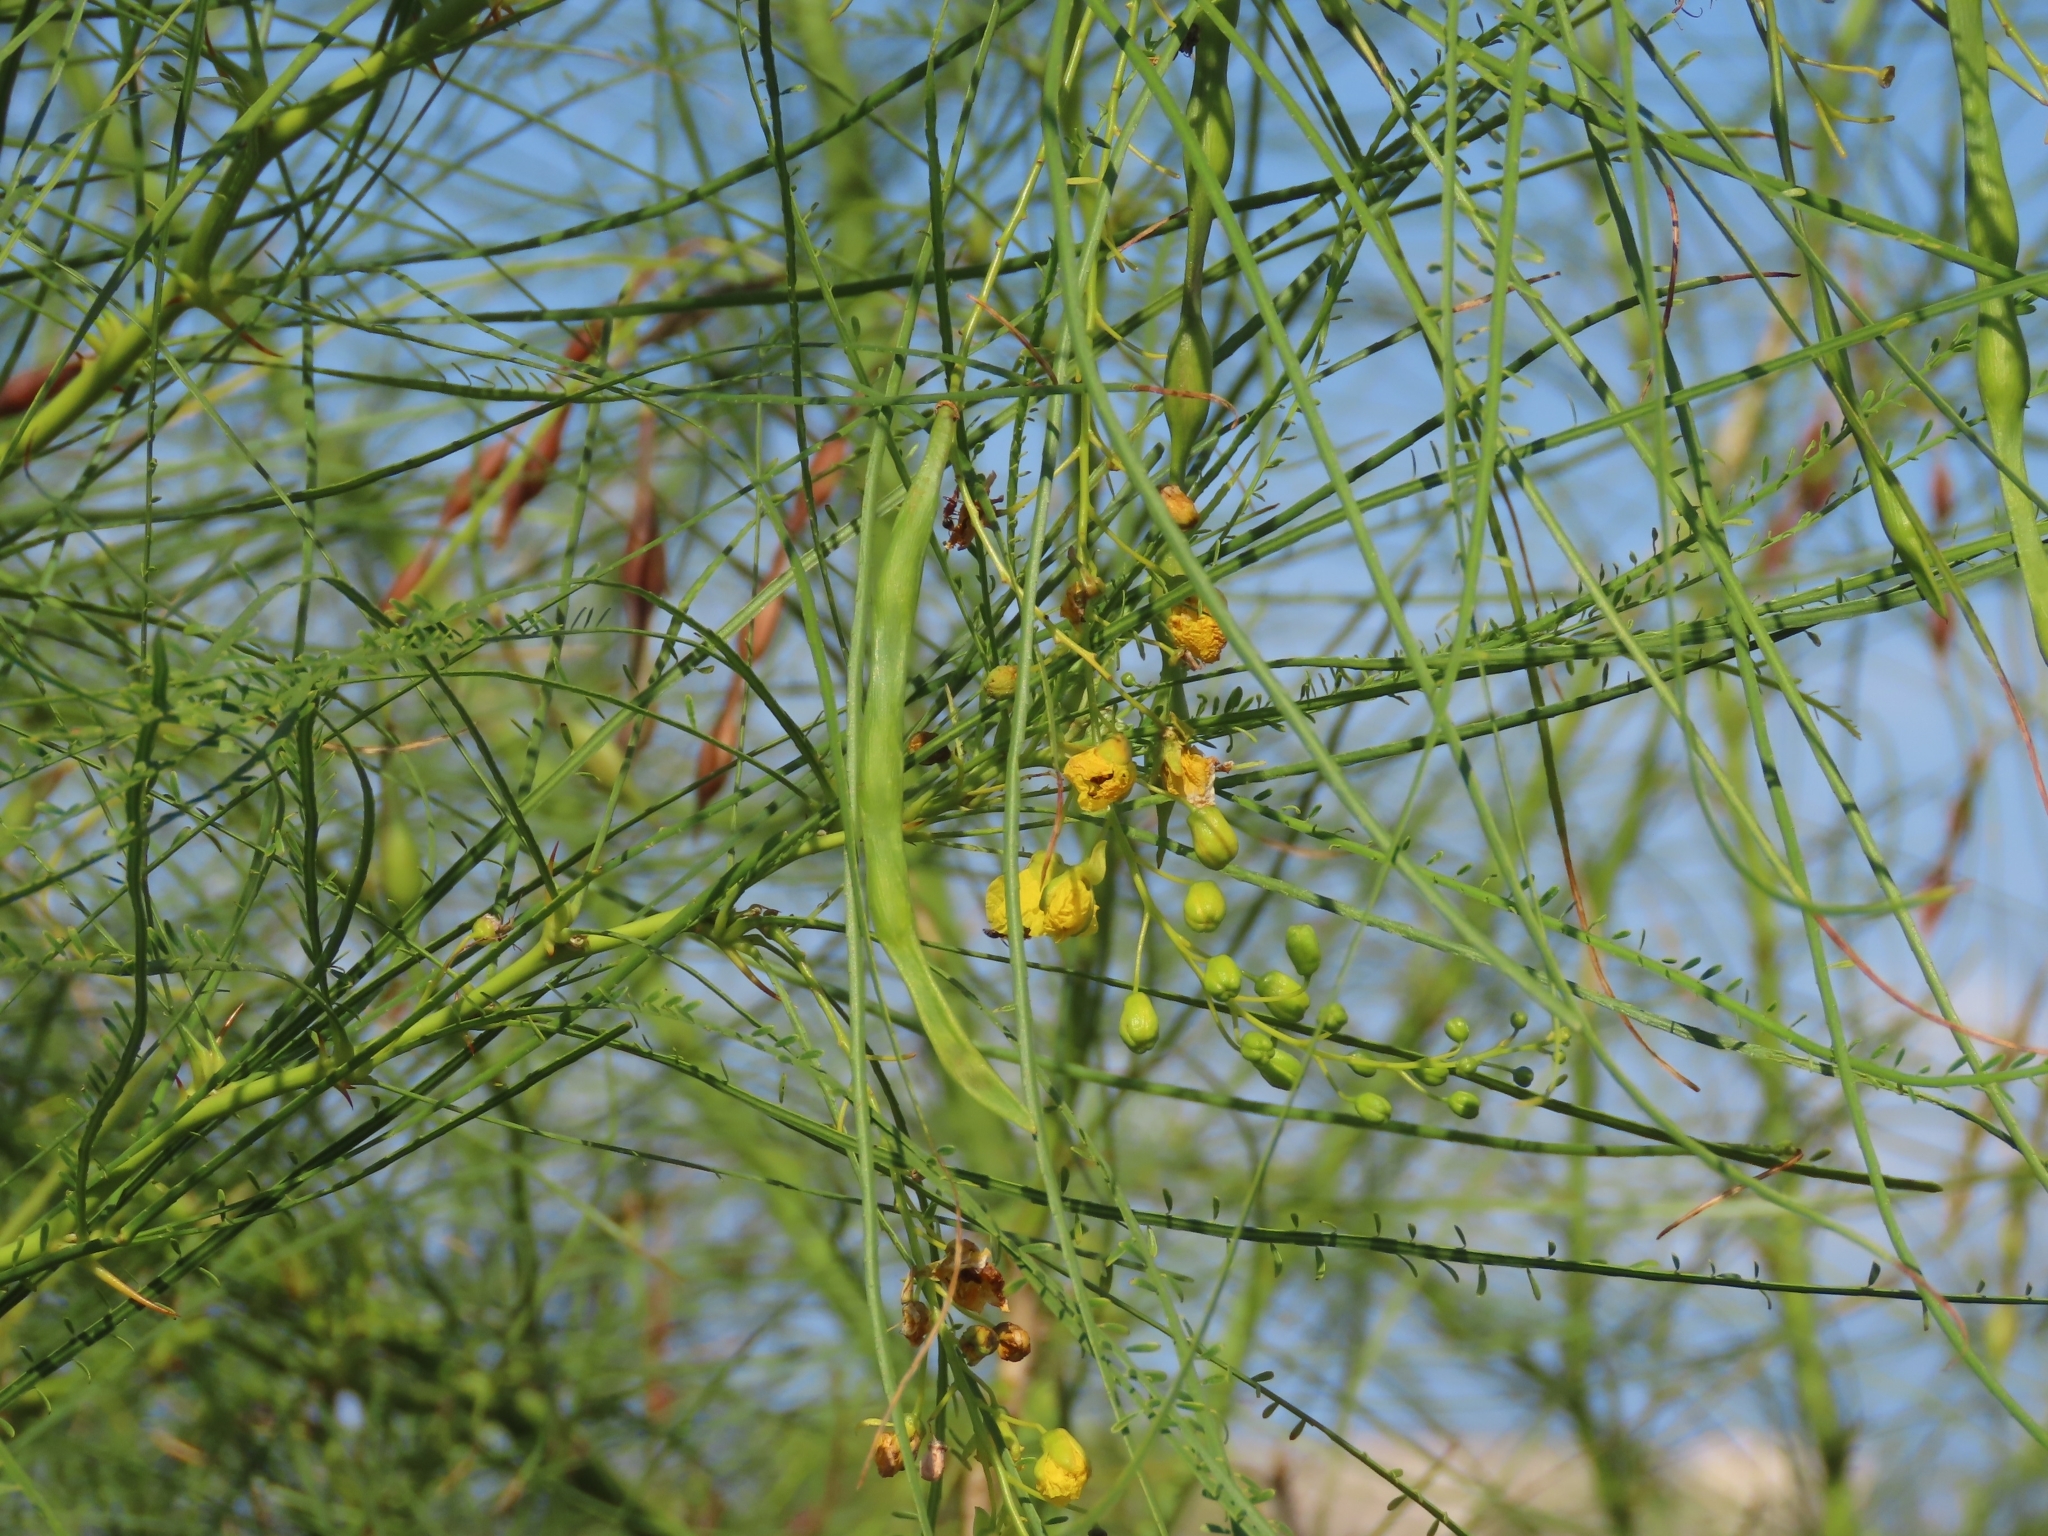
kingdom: Plantae
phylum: Tracheophyta
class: Magnoliopsida
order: Fabales
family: Fabaceae
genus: Parkinsonia
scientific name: Parkinsonia aculeata
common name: Jerusalem thorn
